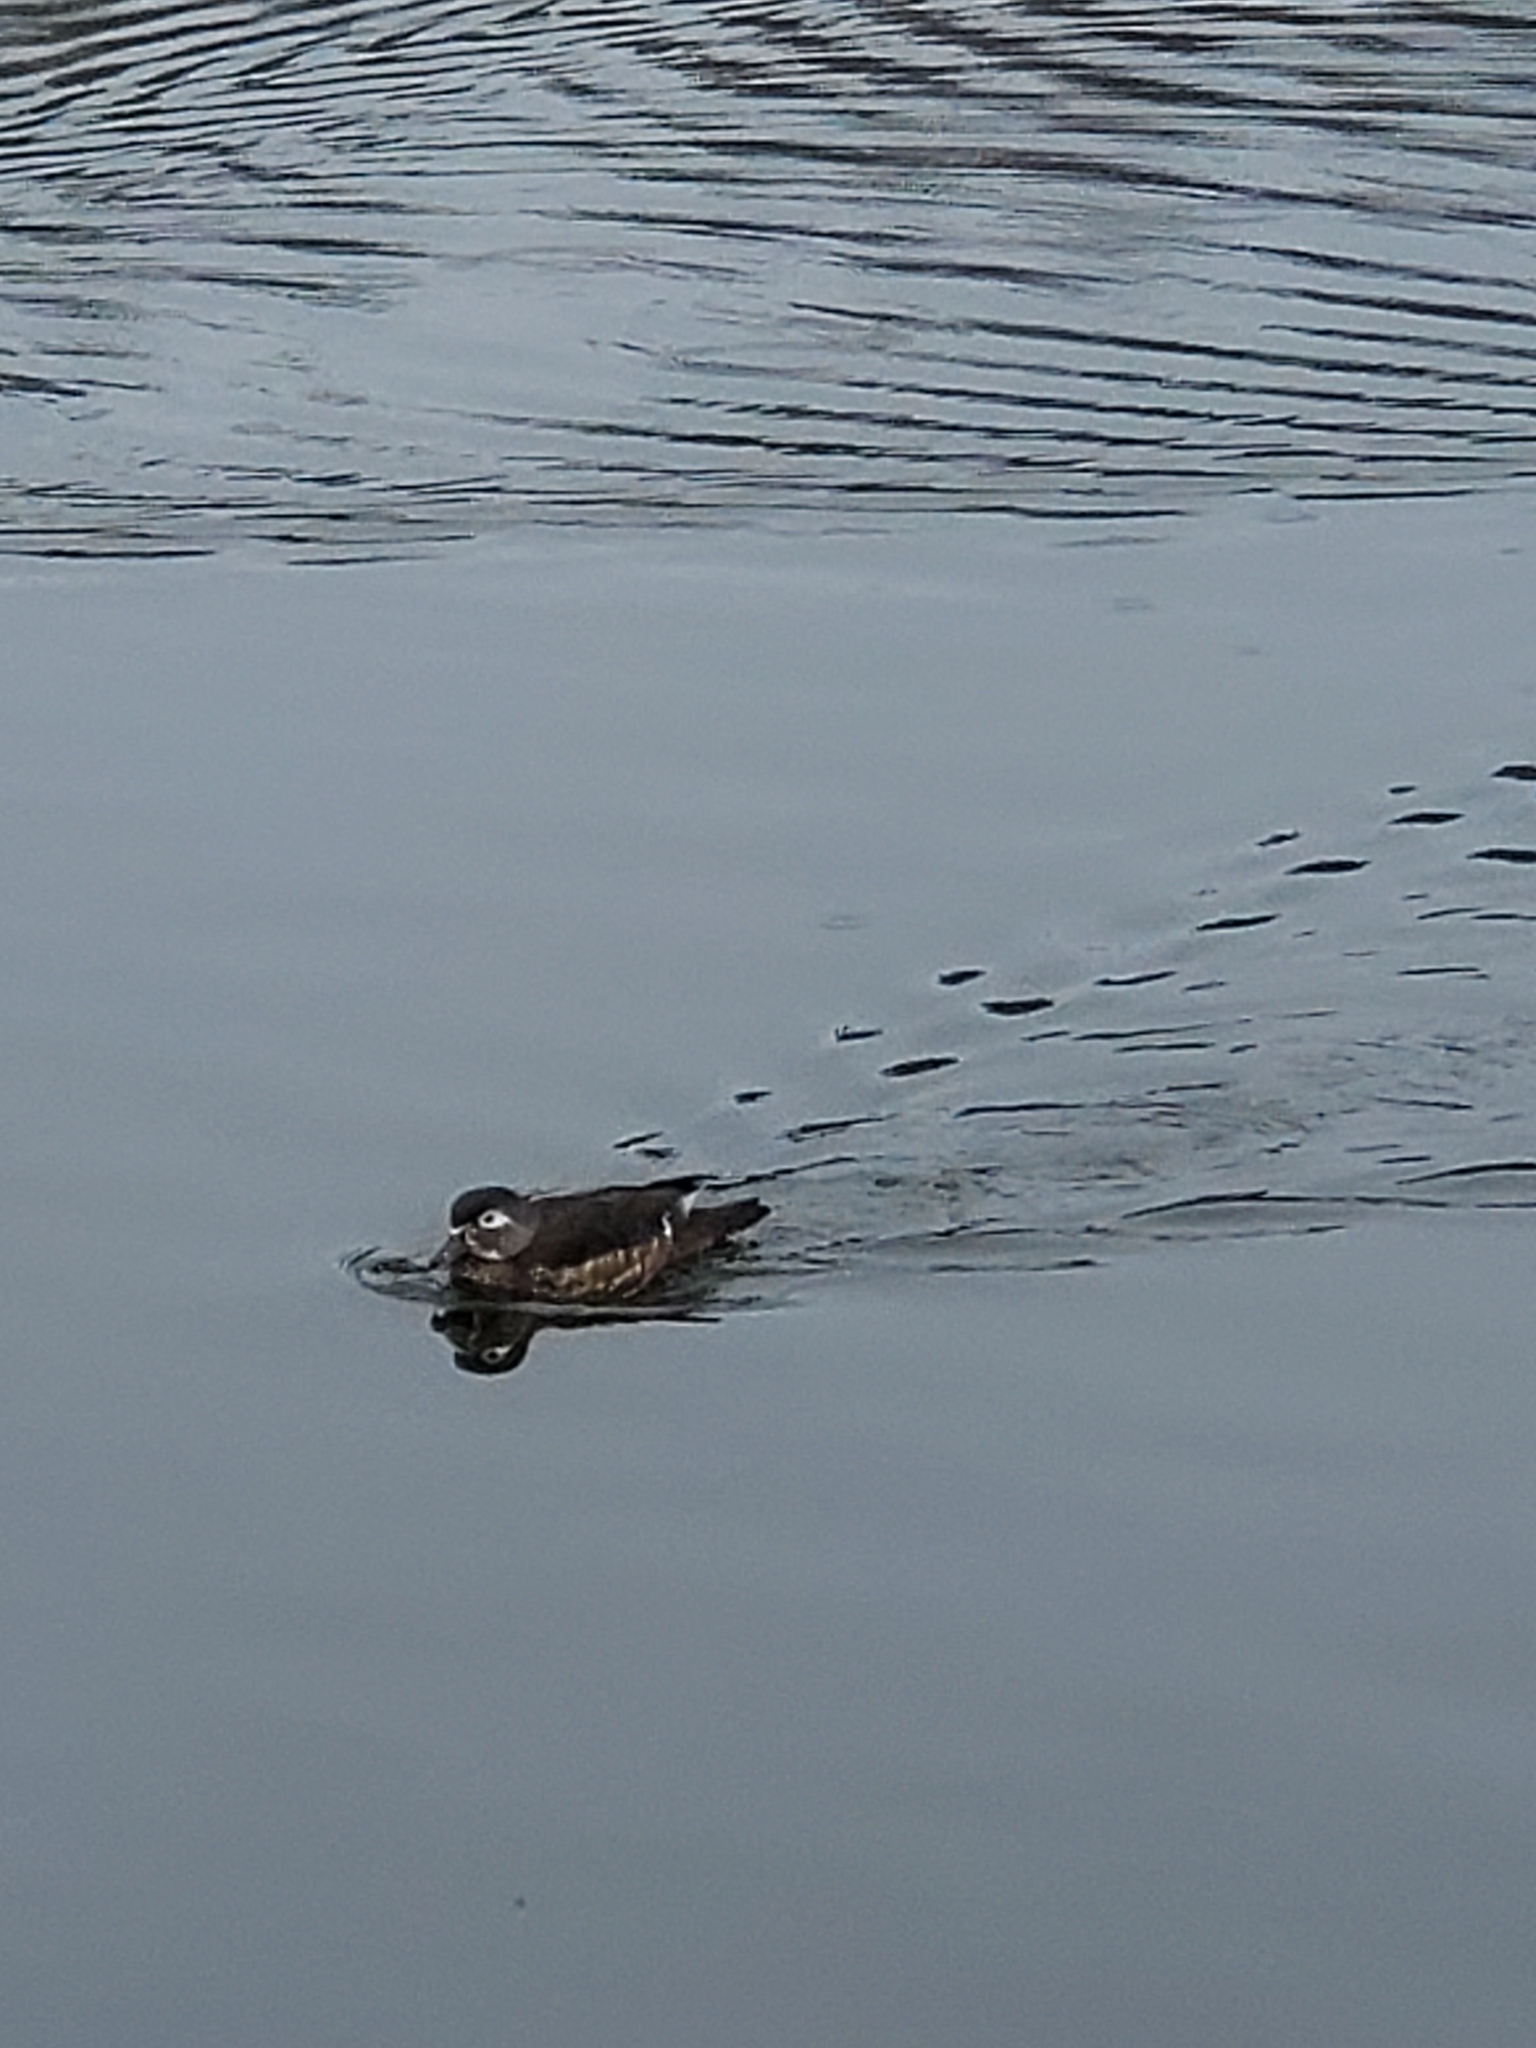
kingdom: Animalia
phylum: Chordata
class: Aves
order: Anseriformes
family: Anatidae
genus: Aix
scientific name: Aix sponsa
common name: Wood duck
